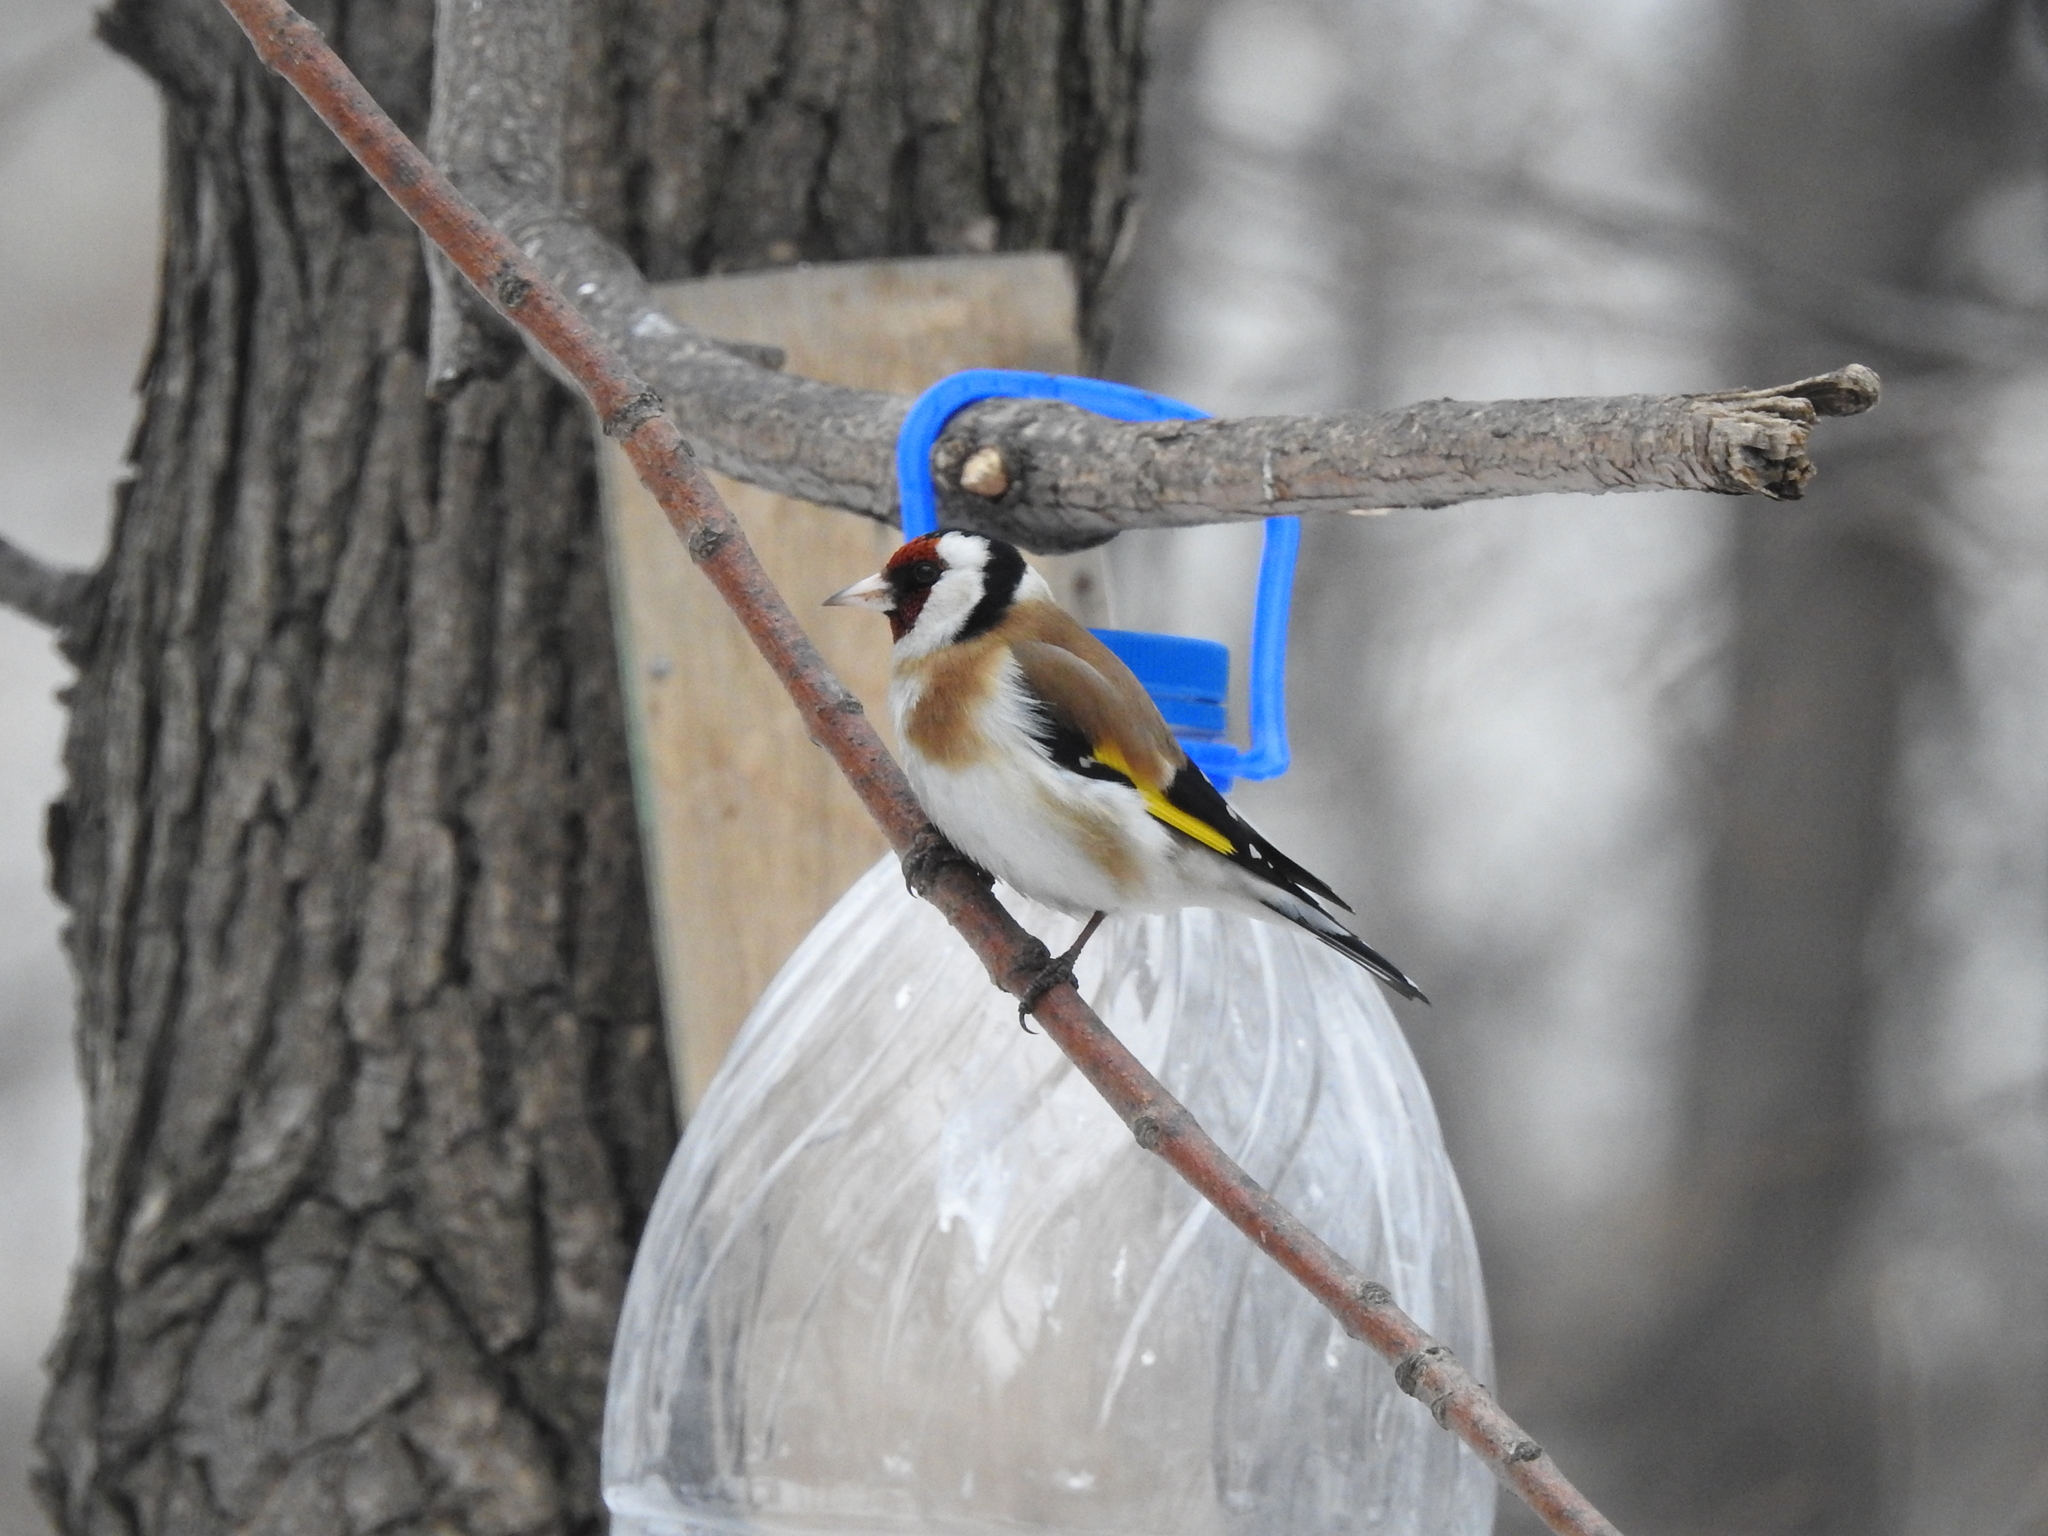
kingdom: Animalia
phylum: Chordata
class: Aves
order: Passeriformes
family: Fringillidae
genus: Carduelis
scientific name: Carduelis carduelis
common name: European goldfinch
